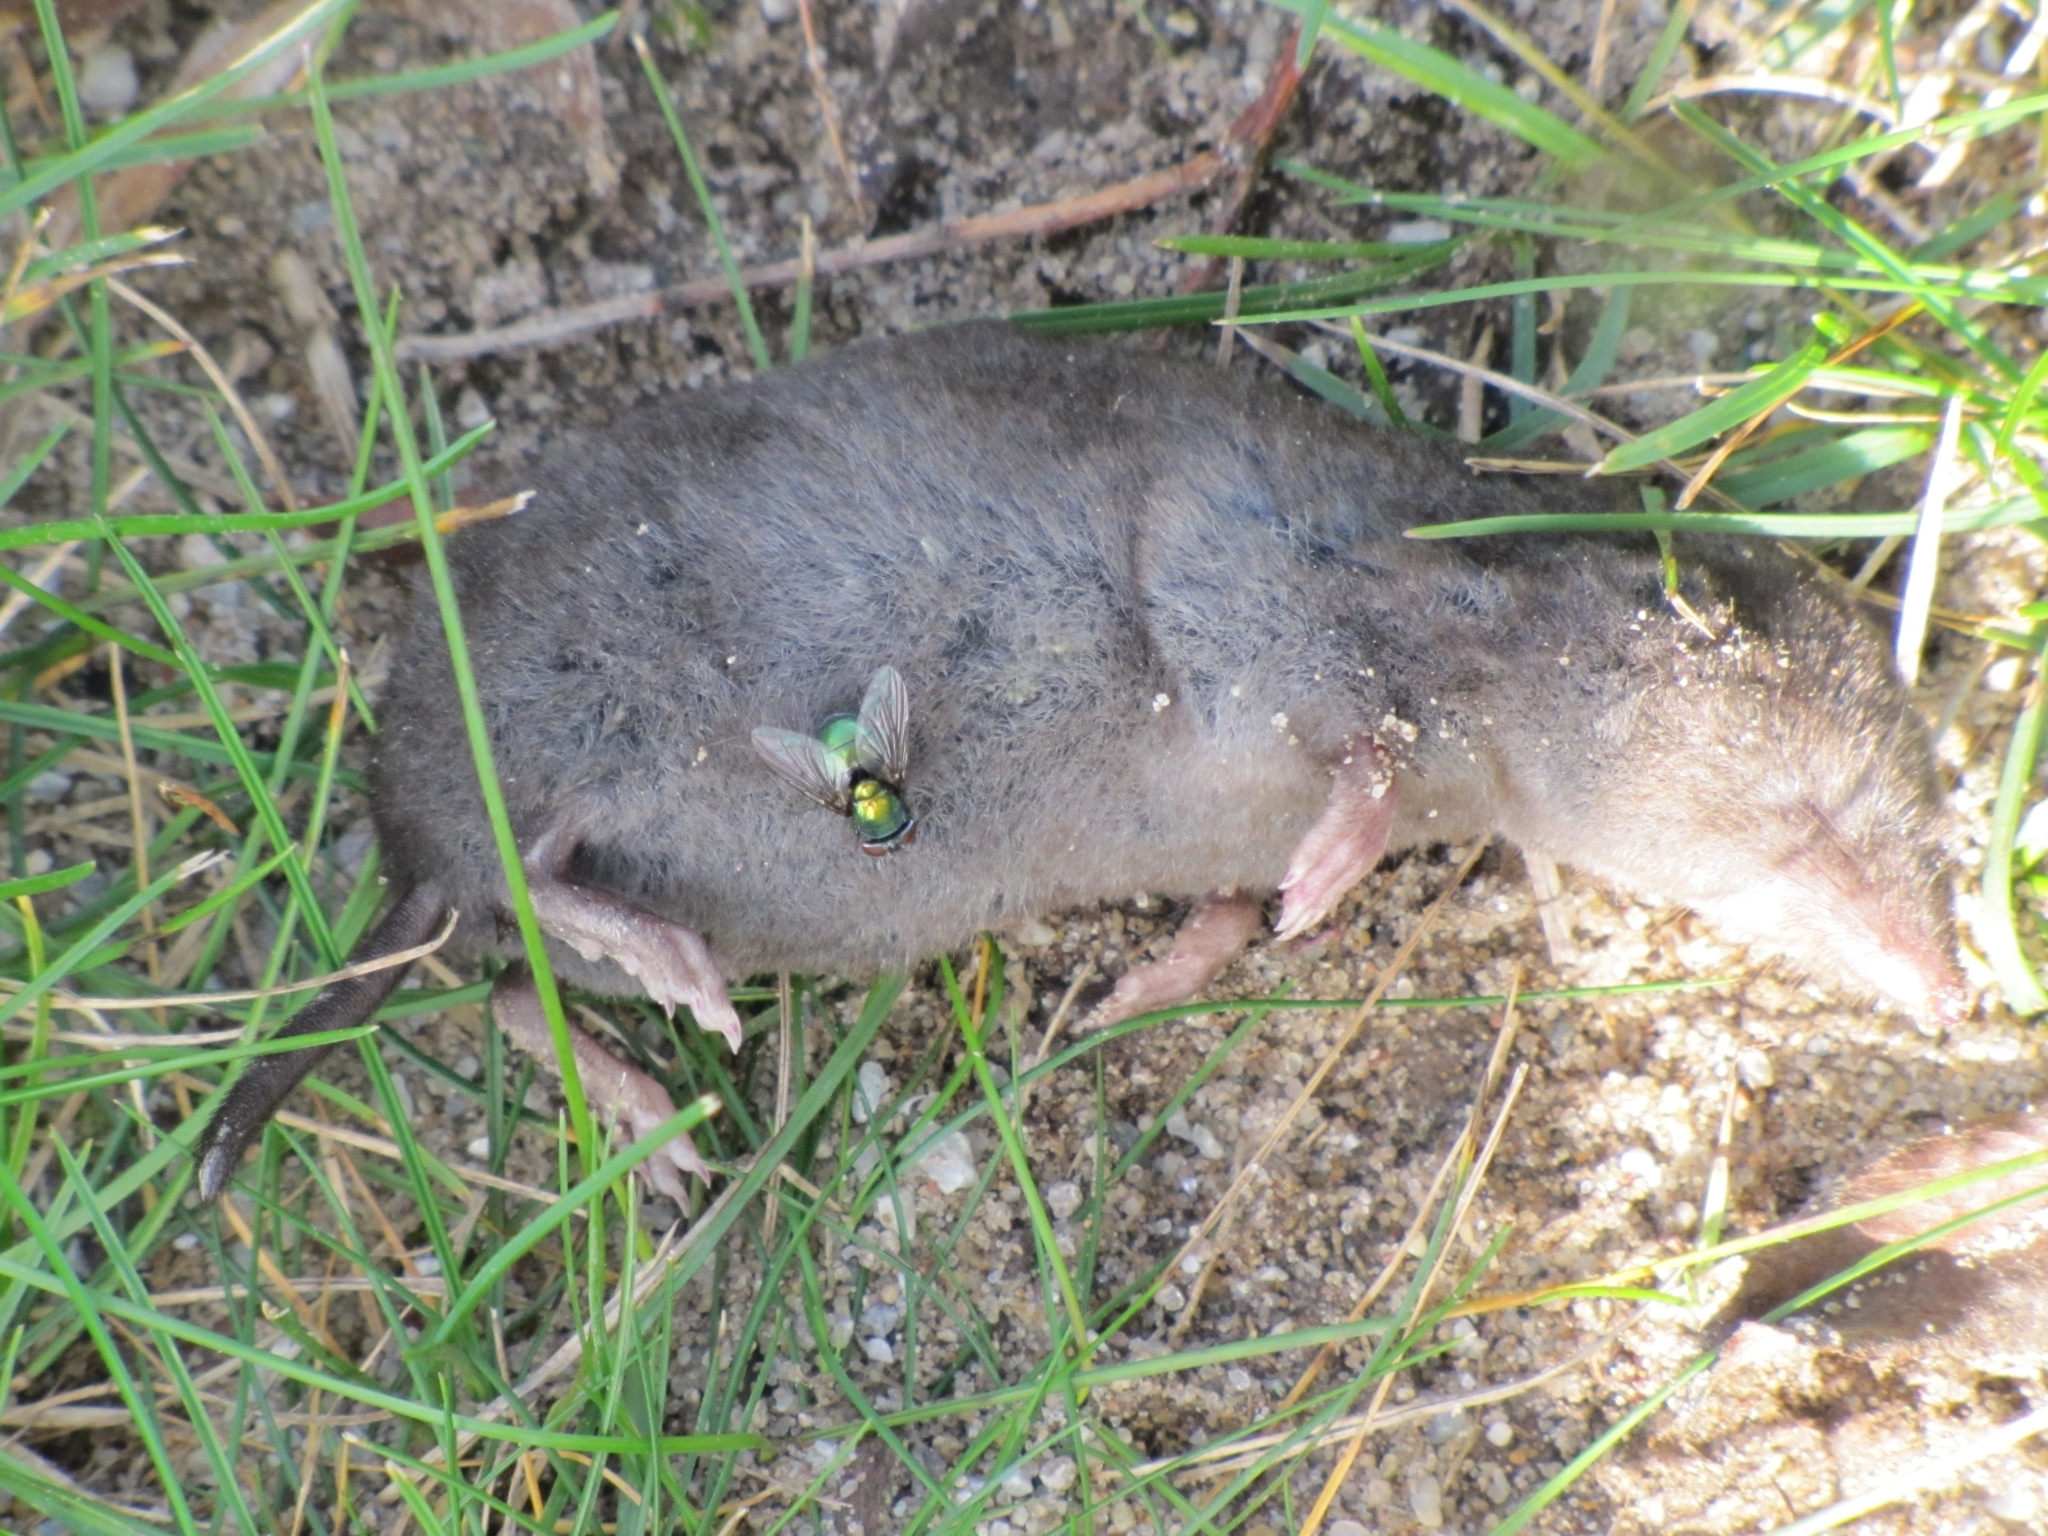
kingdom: Animalia
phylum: Chordata
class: Mammalia
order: Soricomorpha
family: Soricidae
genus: Blarina
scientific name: Blarina brevicauda
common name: Northern short-tailed shrew
